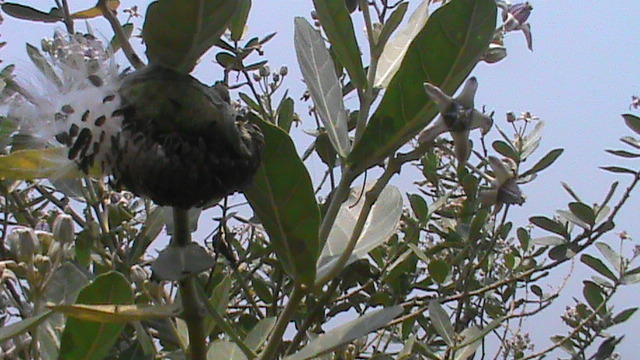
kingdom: Plantae
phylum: Tracheophyta
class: Magnoliopsida
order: Gentianales
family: Apocynaceae
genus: Calotropis
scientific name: Calotropis gigantea
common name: Crown flower
